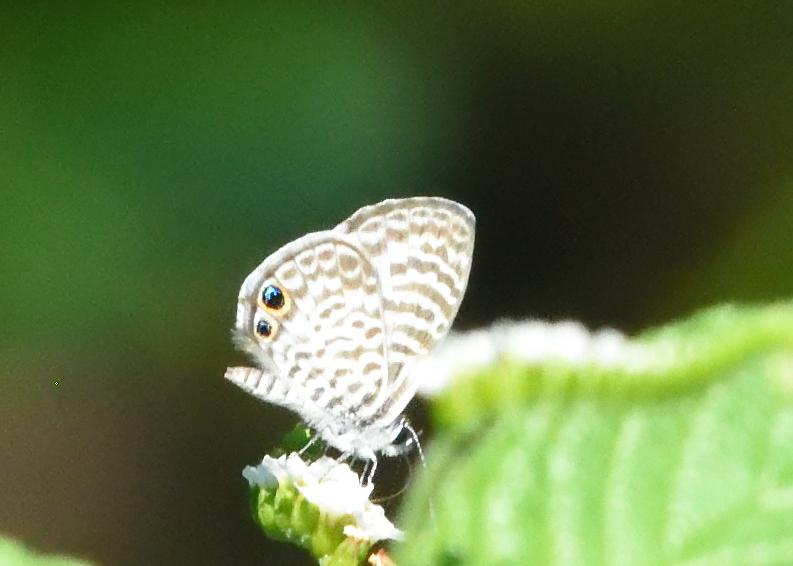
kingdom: Animalia
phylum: Arthropoda
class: Insecta
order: Lepidoptera
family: Lycaenidae
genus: Leptotes
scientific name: Leptotes cassius
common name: Cassius blue
